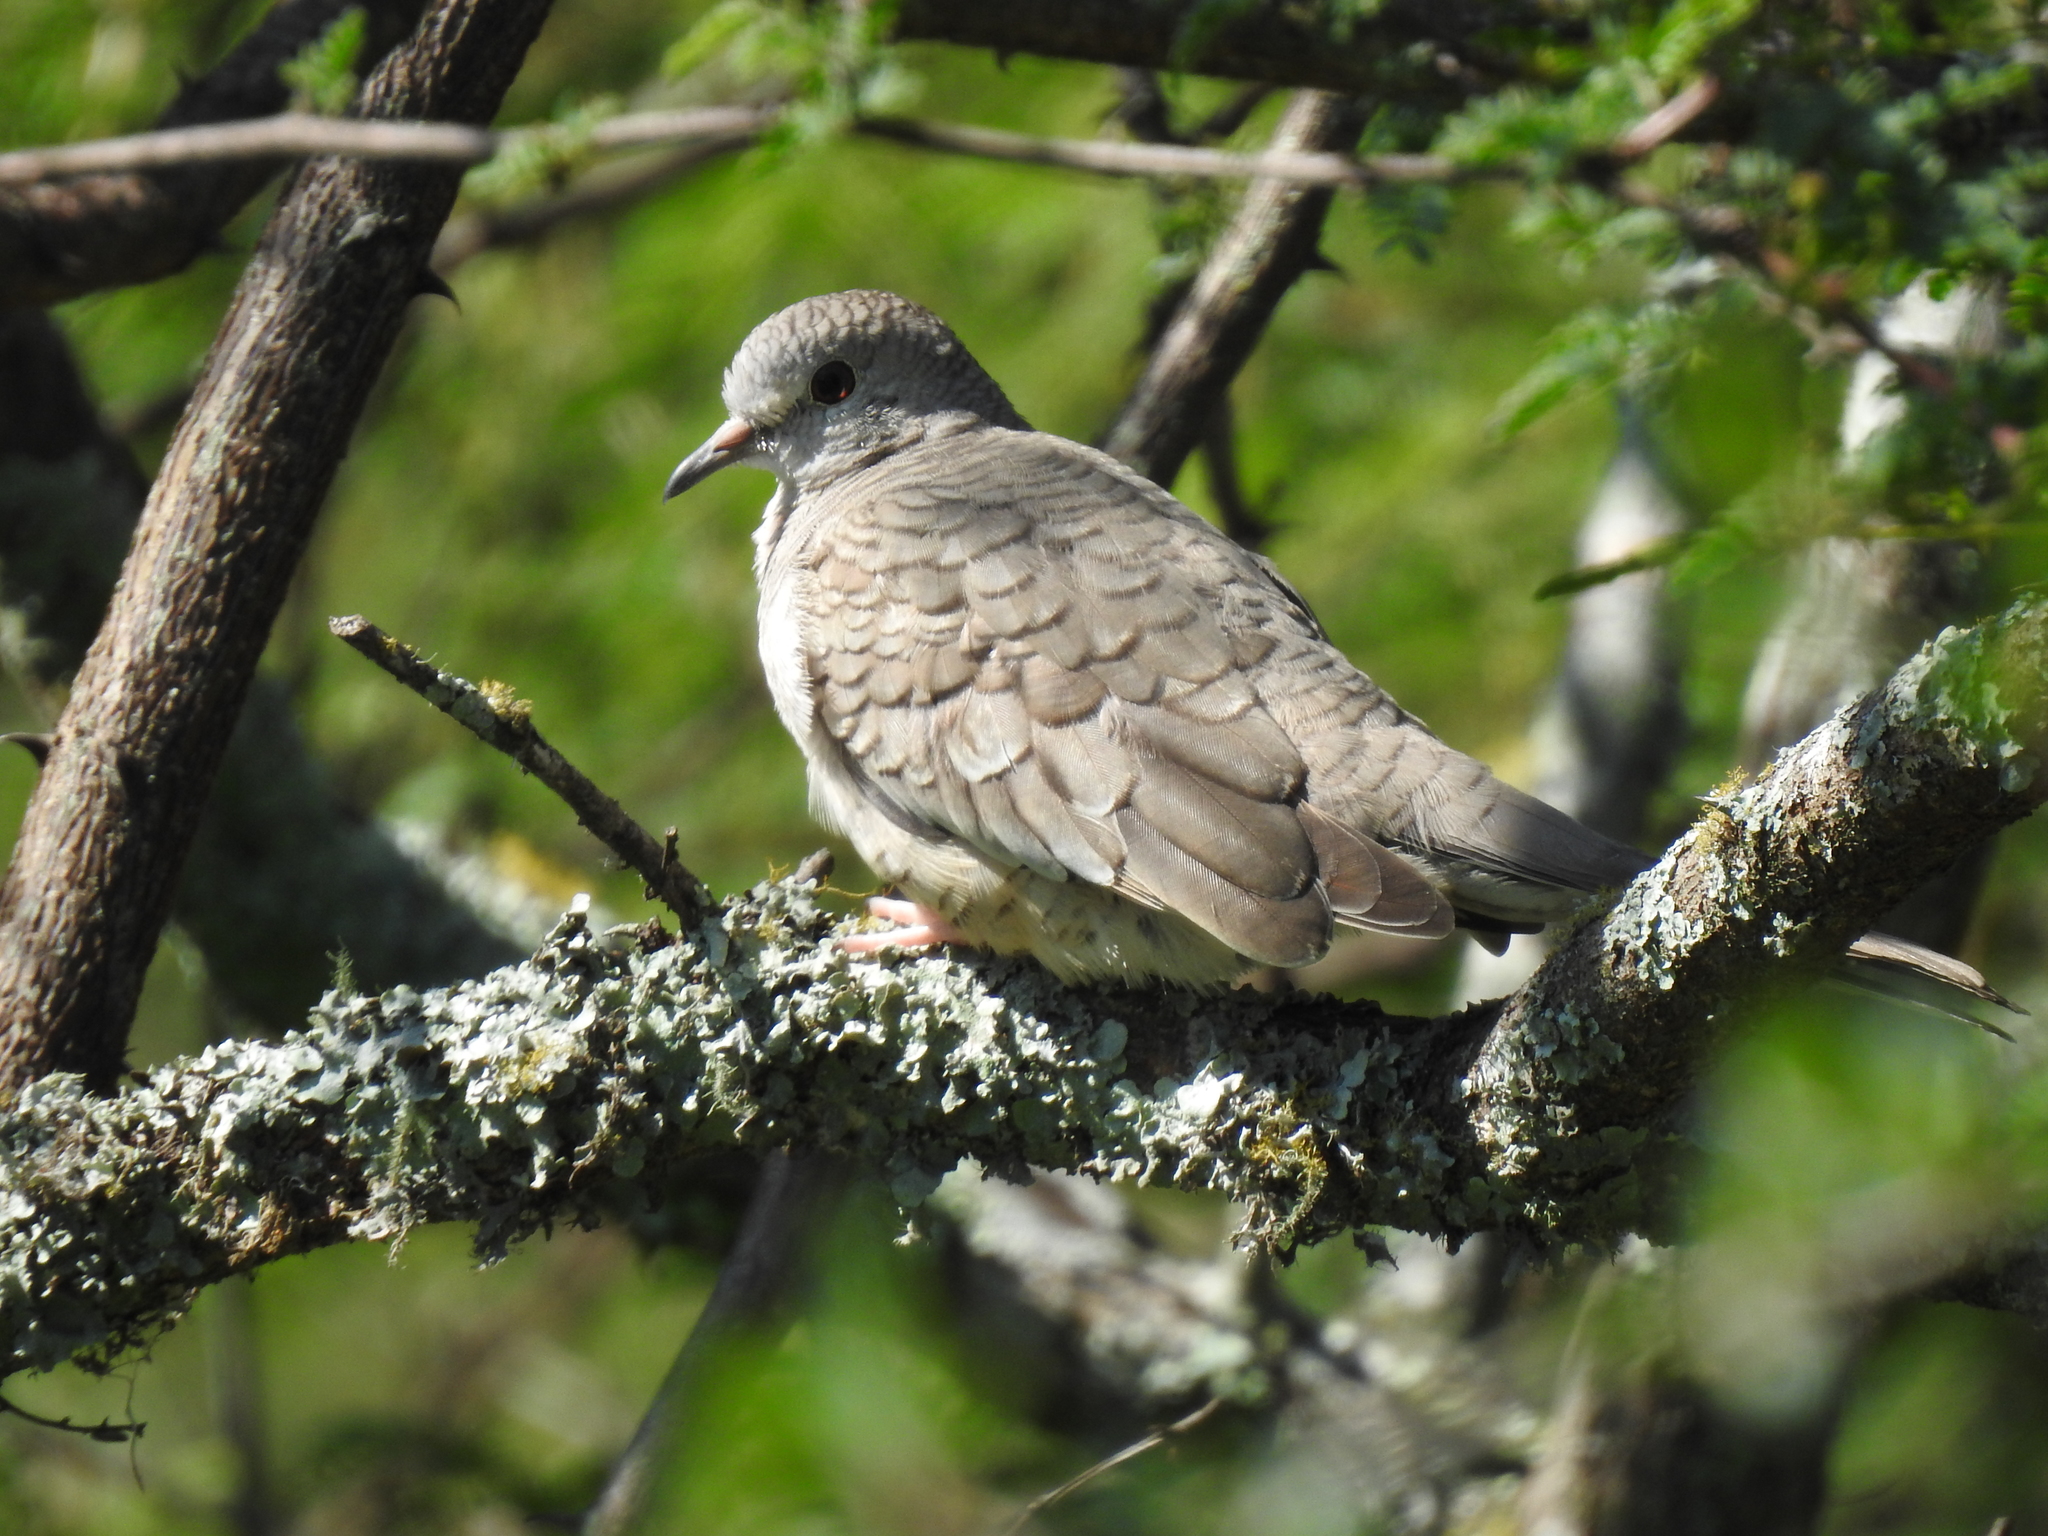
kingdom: Animalia
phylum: Chordata
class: Aves
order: Columbiformes
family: Columbidae
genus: Columbina
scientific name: Columbina inca
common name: Inca dove
